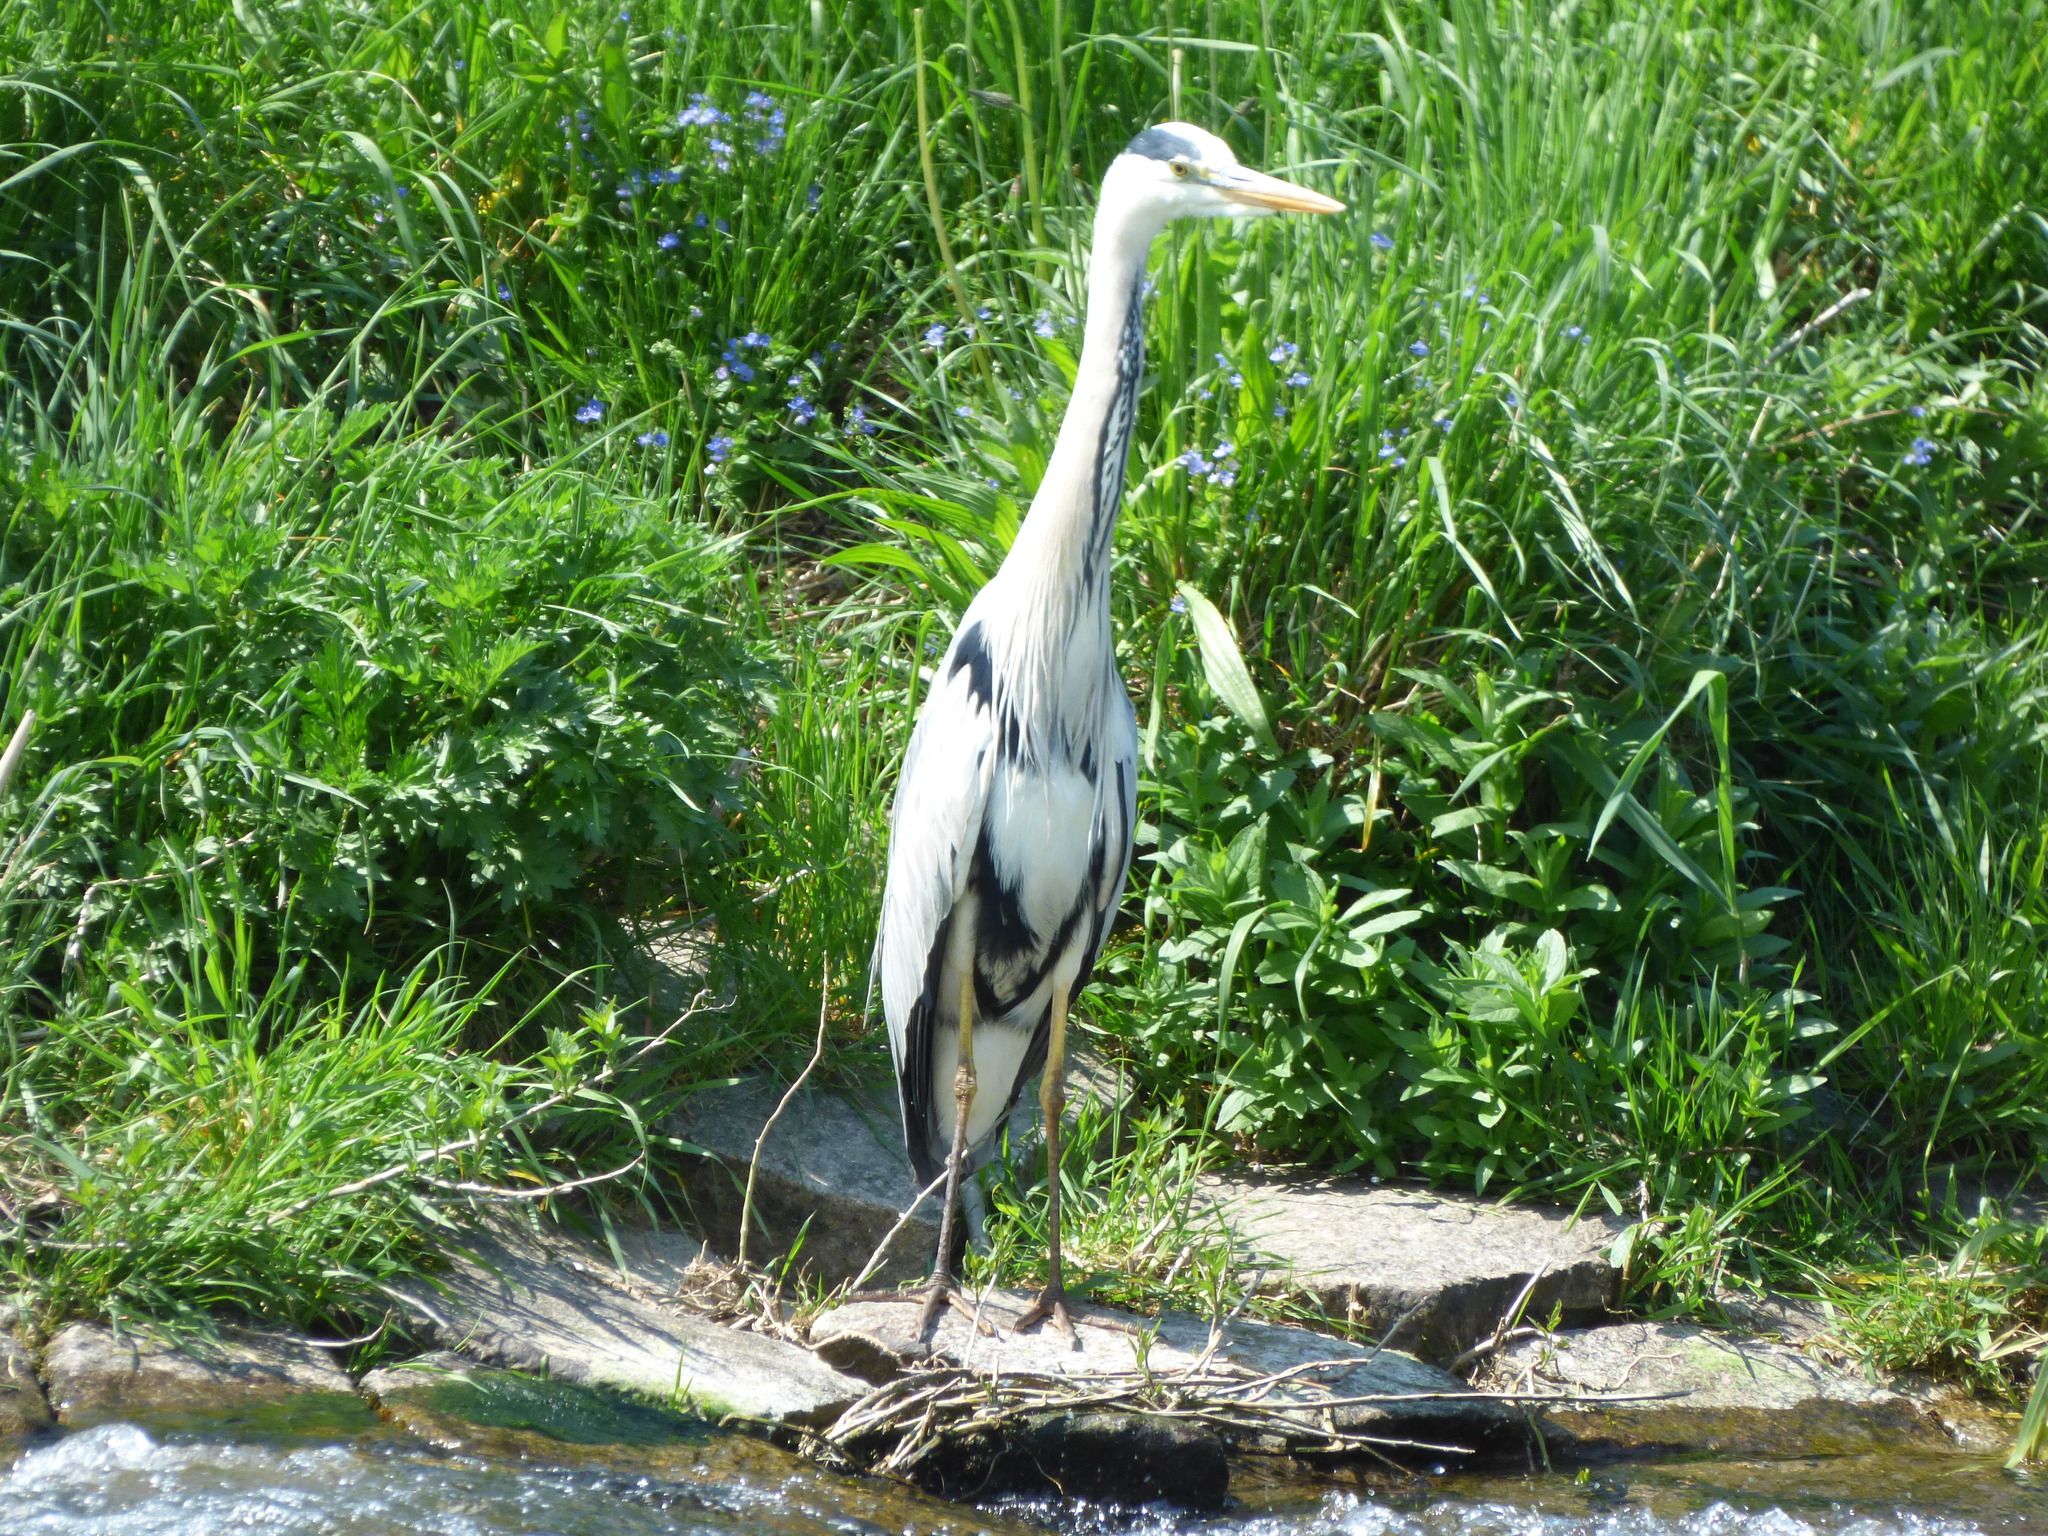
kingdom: Animalia
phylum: Chordata
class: Aves
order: Pelecaniformes
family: Ardeidae
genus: Ardea
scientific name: Ardea cinerea
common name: Grey heron
